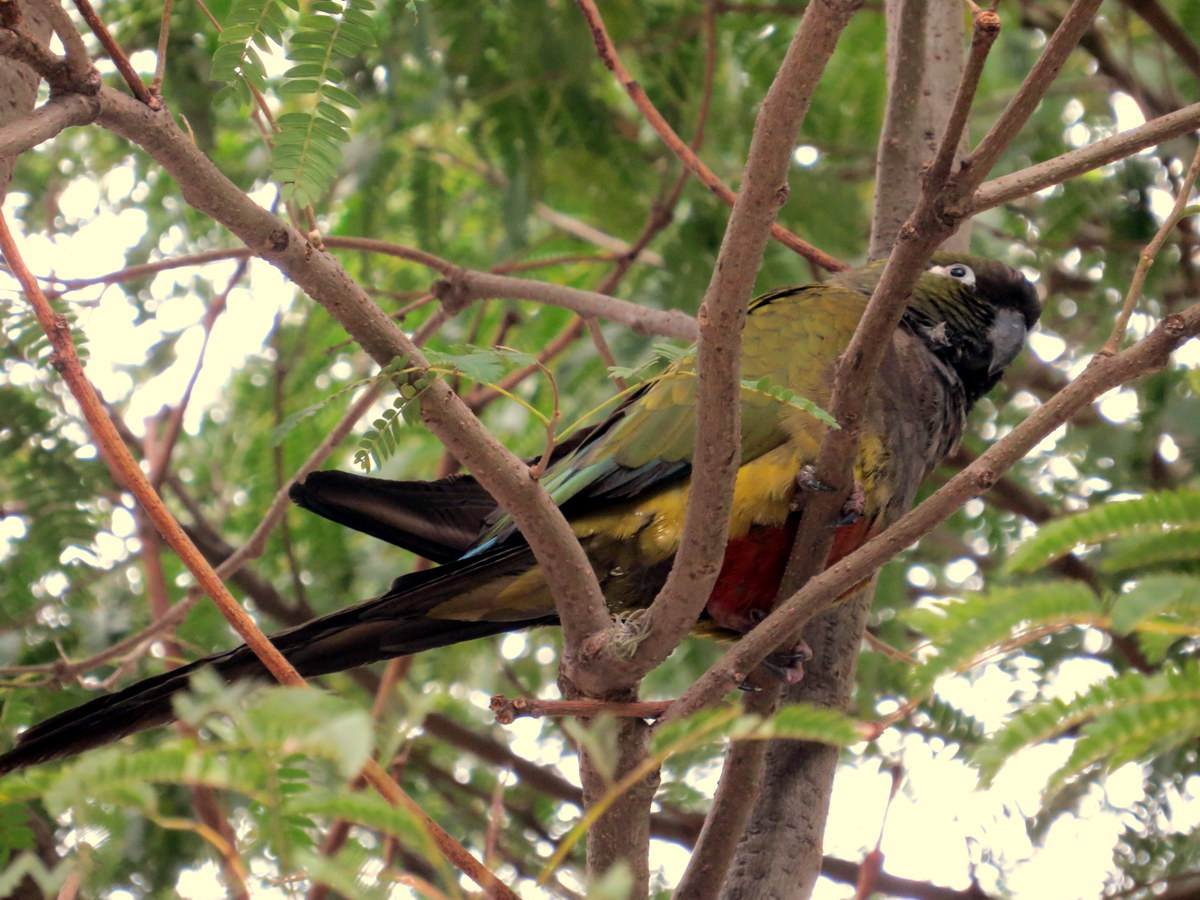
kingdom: Animalia
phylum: Chordata
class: Aves
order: Psittaciformes
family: Psittacidae
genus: Cyanoliseus
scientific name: Cyanoliseus patagonus
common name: Burrowing parrot
